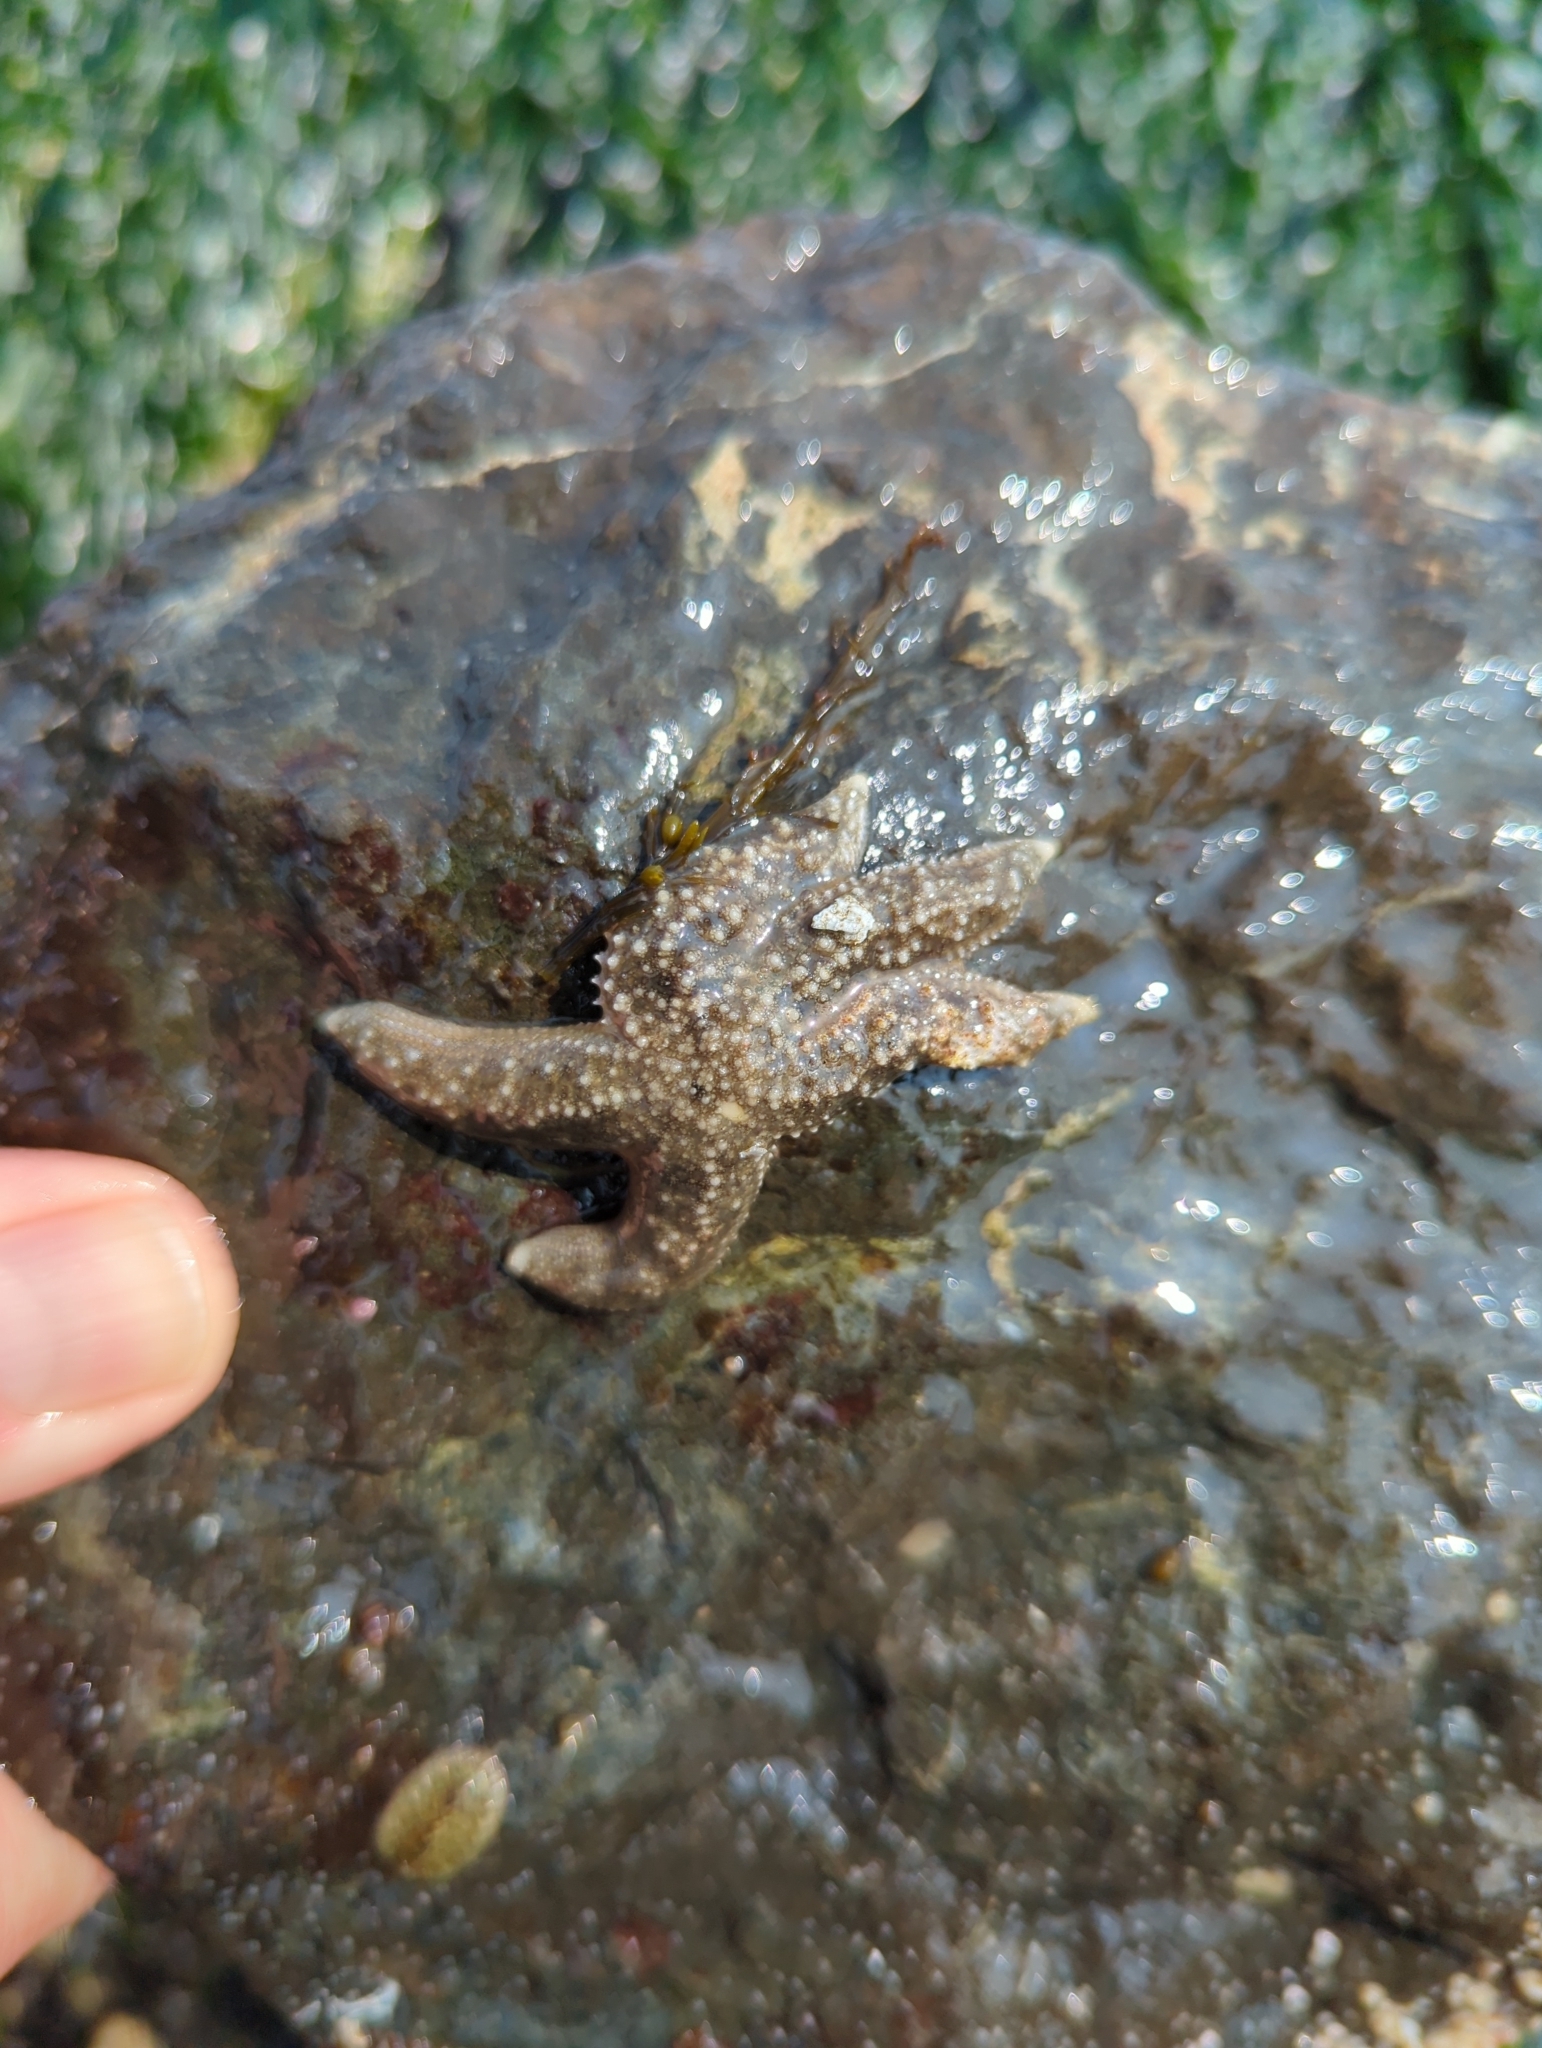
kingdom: Animalia
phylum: Echinodermata
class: Asteroidea
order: Forcipulatida
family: Asteriidae
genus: Evasterias
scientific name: Evasterias troschelii
